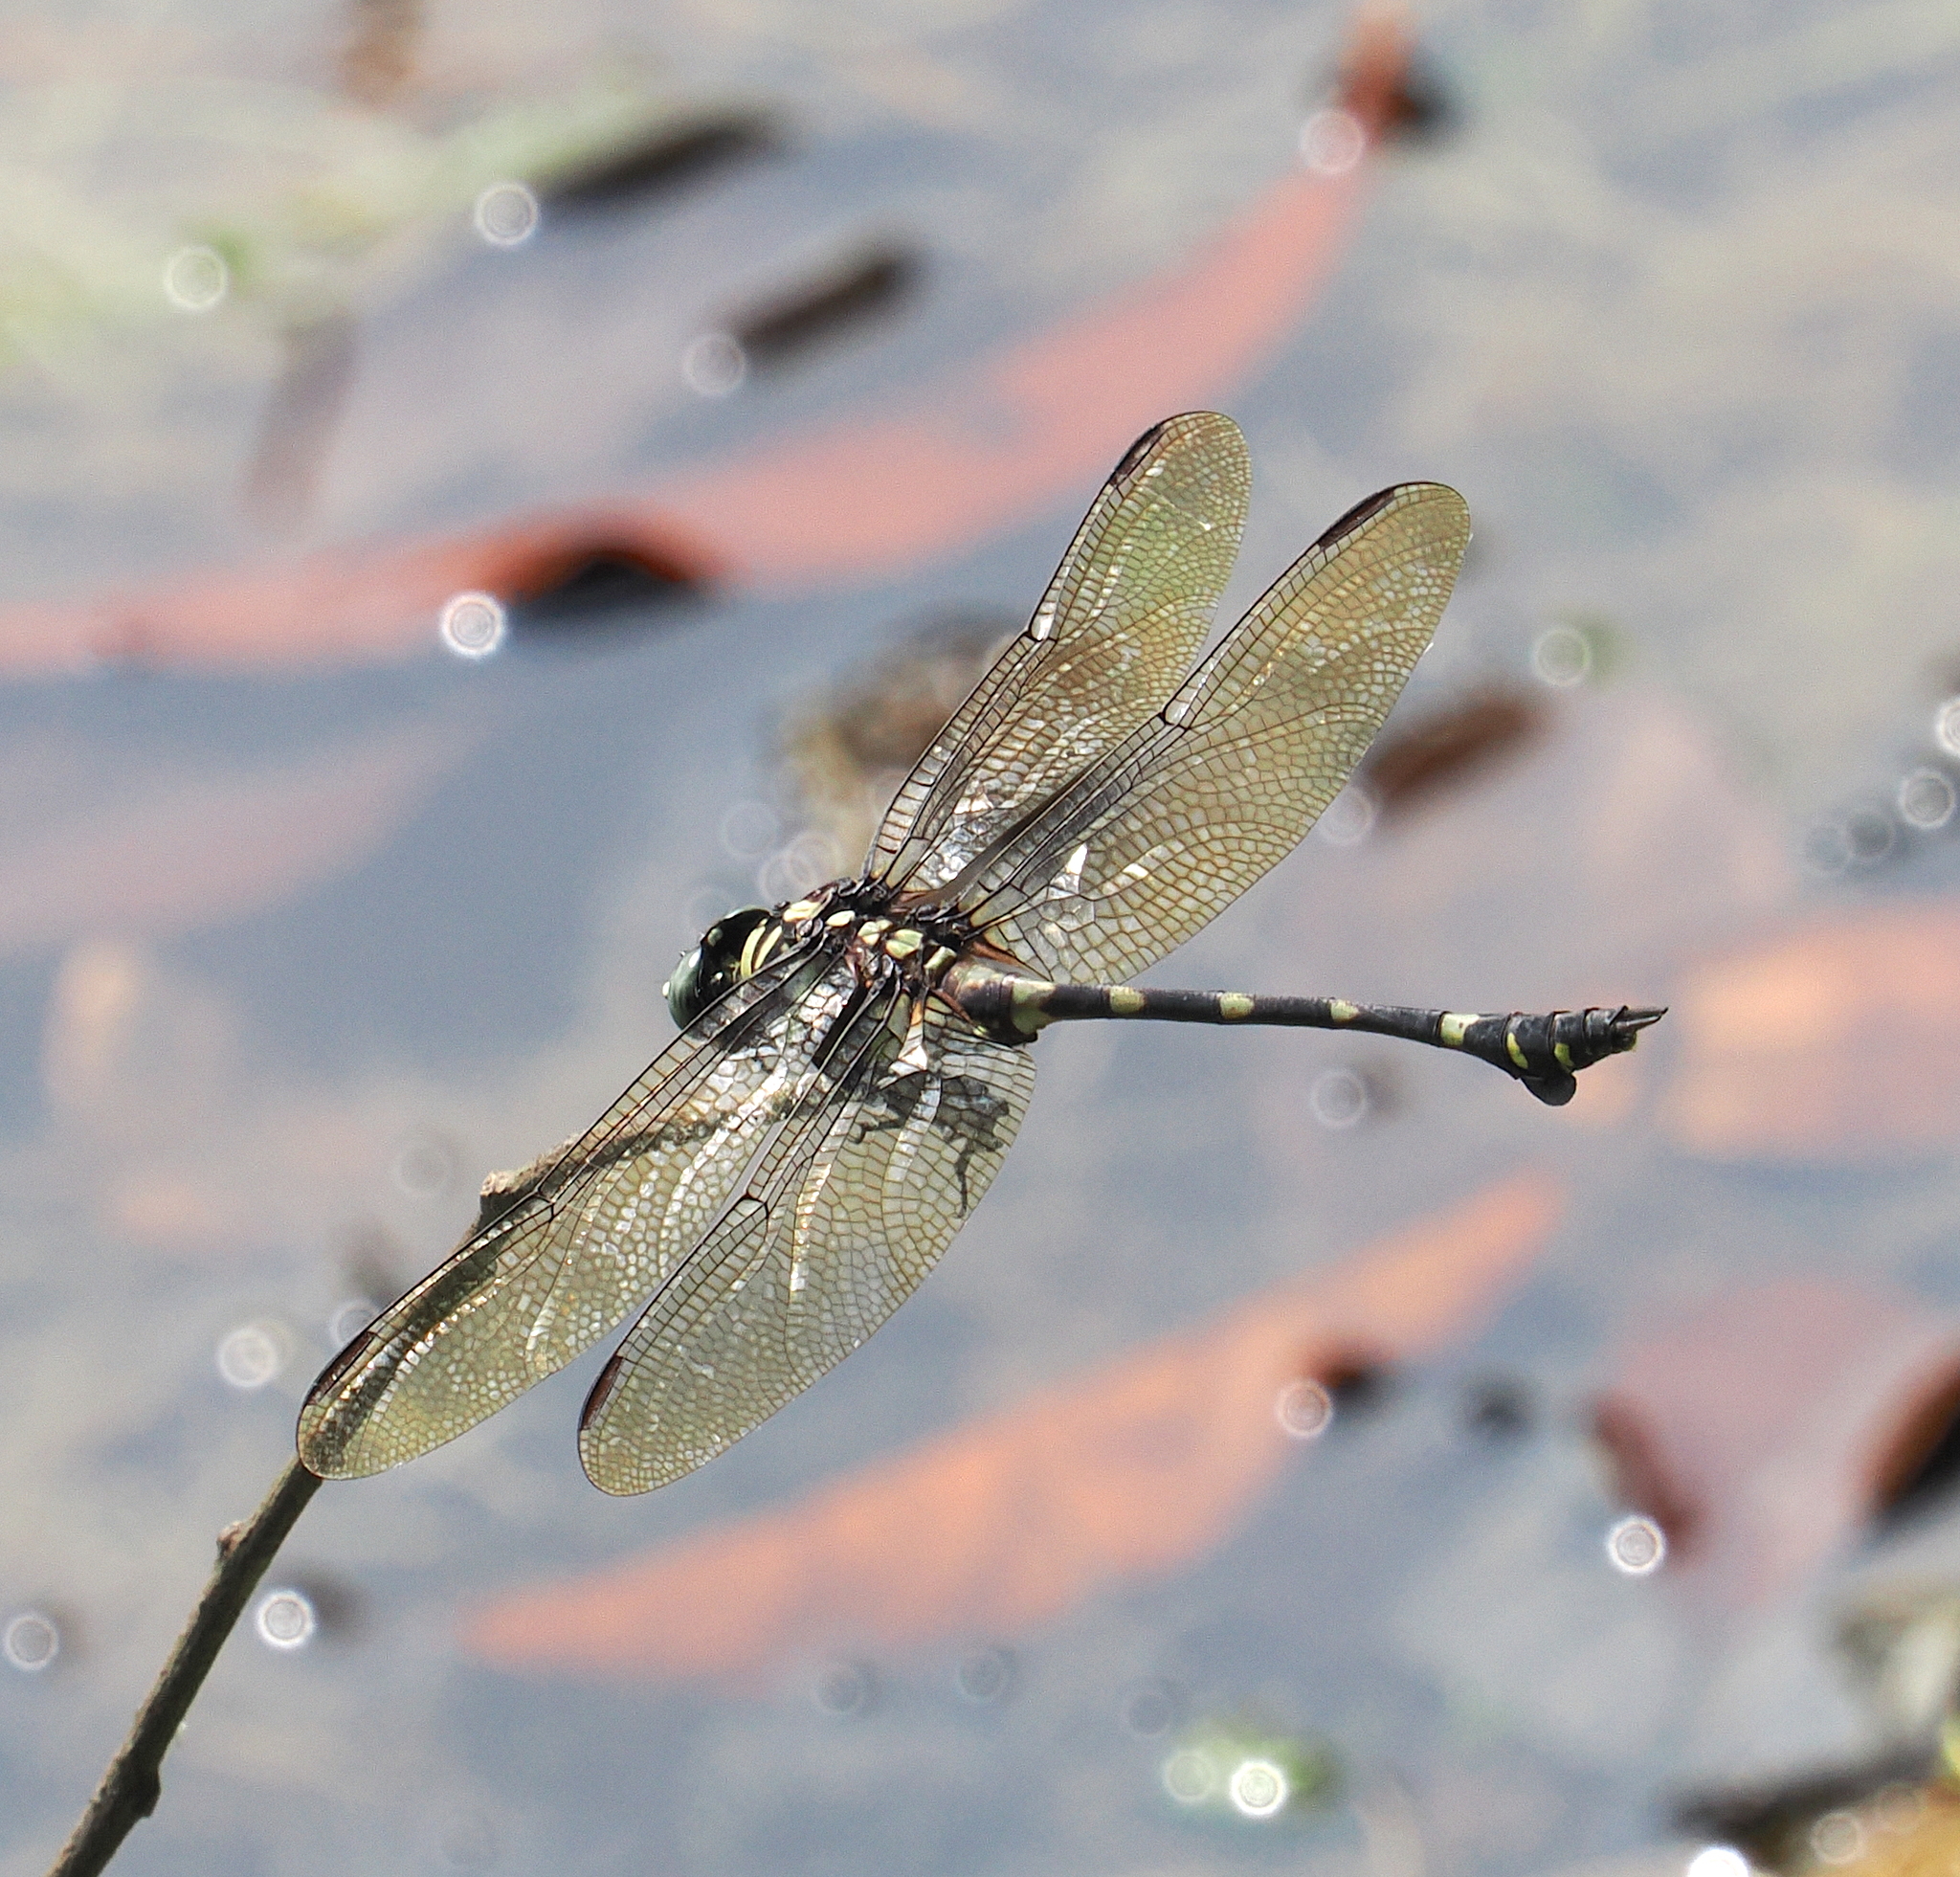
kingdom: Animalia
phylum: Arthropoda
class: Insecta
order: Odonata
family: Gomphidae
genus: Ictinogomphus
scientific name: Ictinogomphus decoratus
